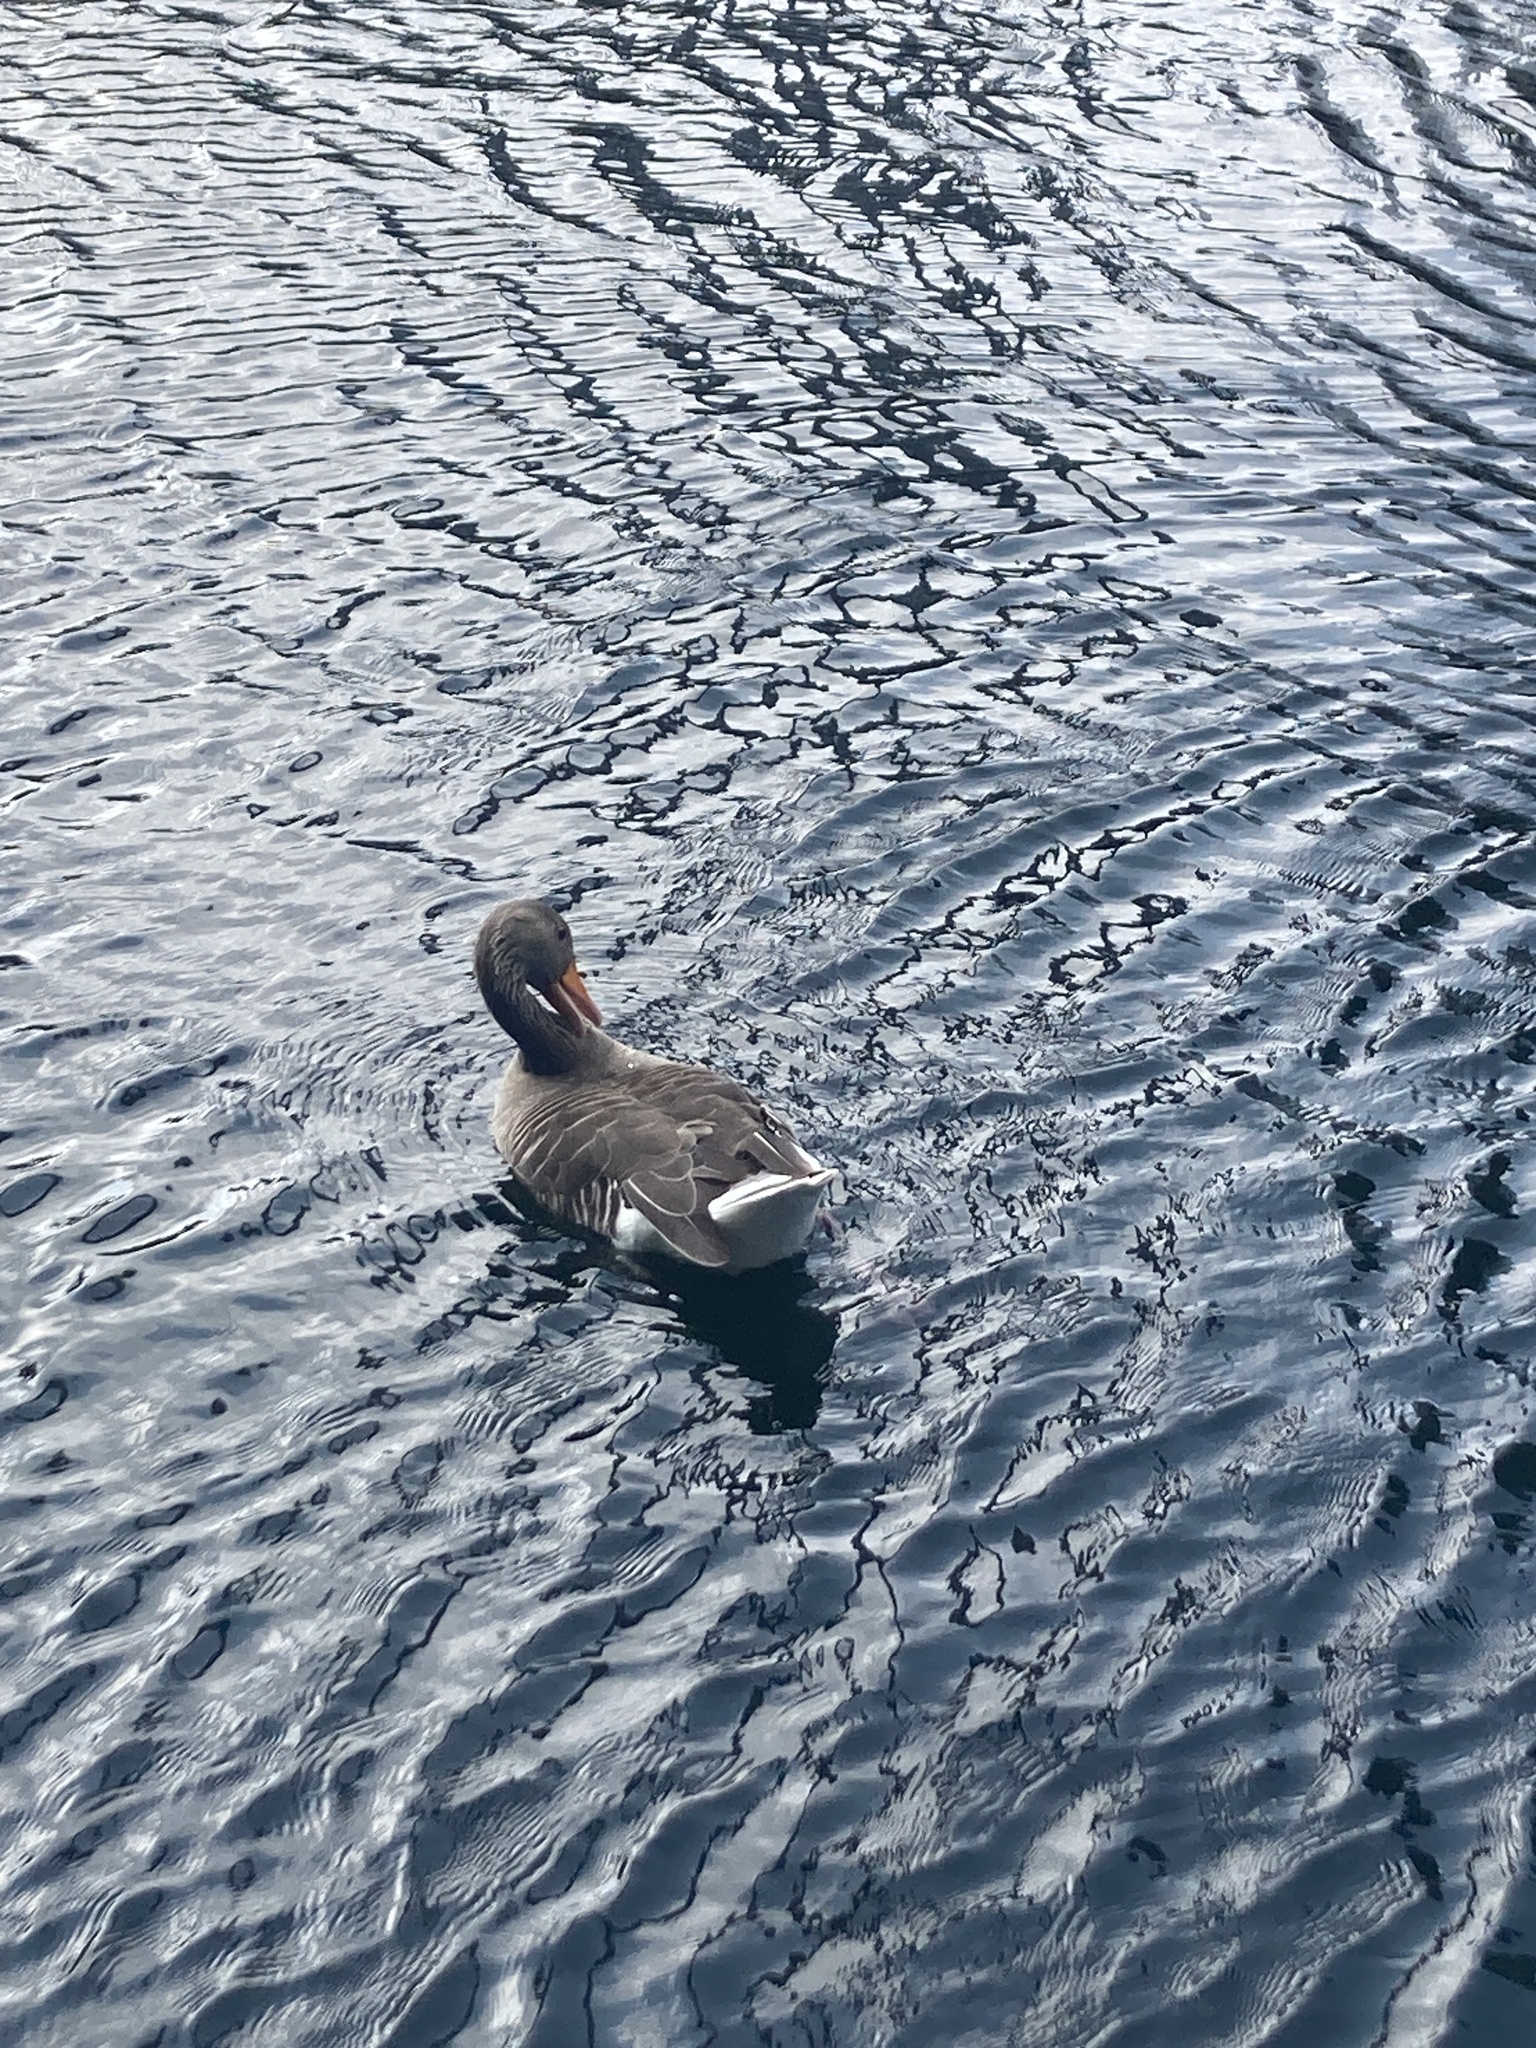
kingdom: Animalia
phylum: Chordata
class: Aves
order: Anseriformes
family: Anatidae
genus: Anser
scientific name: Anser anser
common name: Greylag goose
